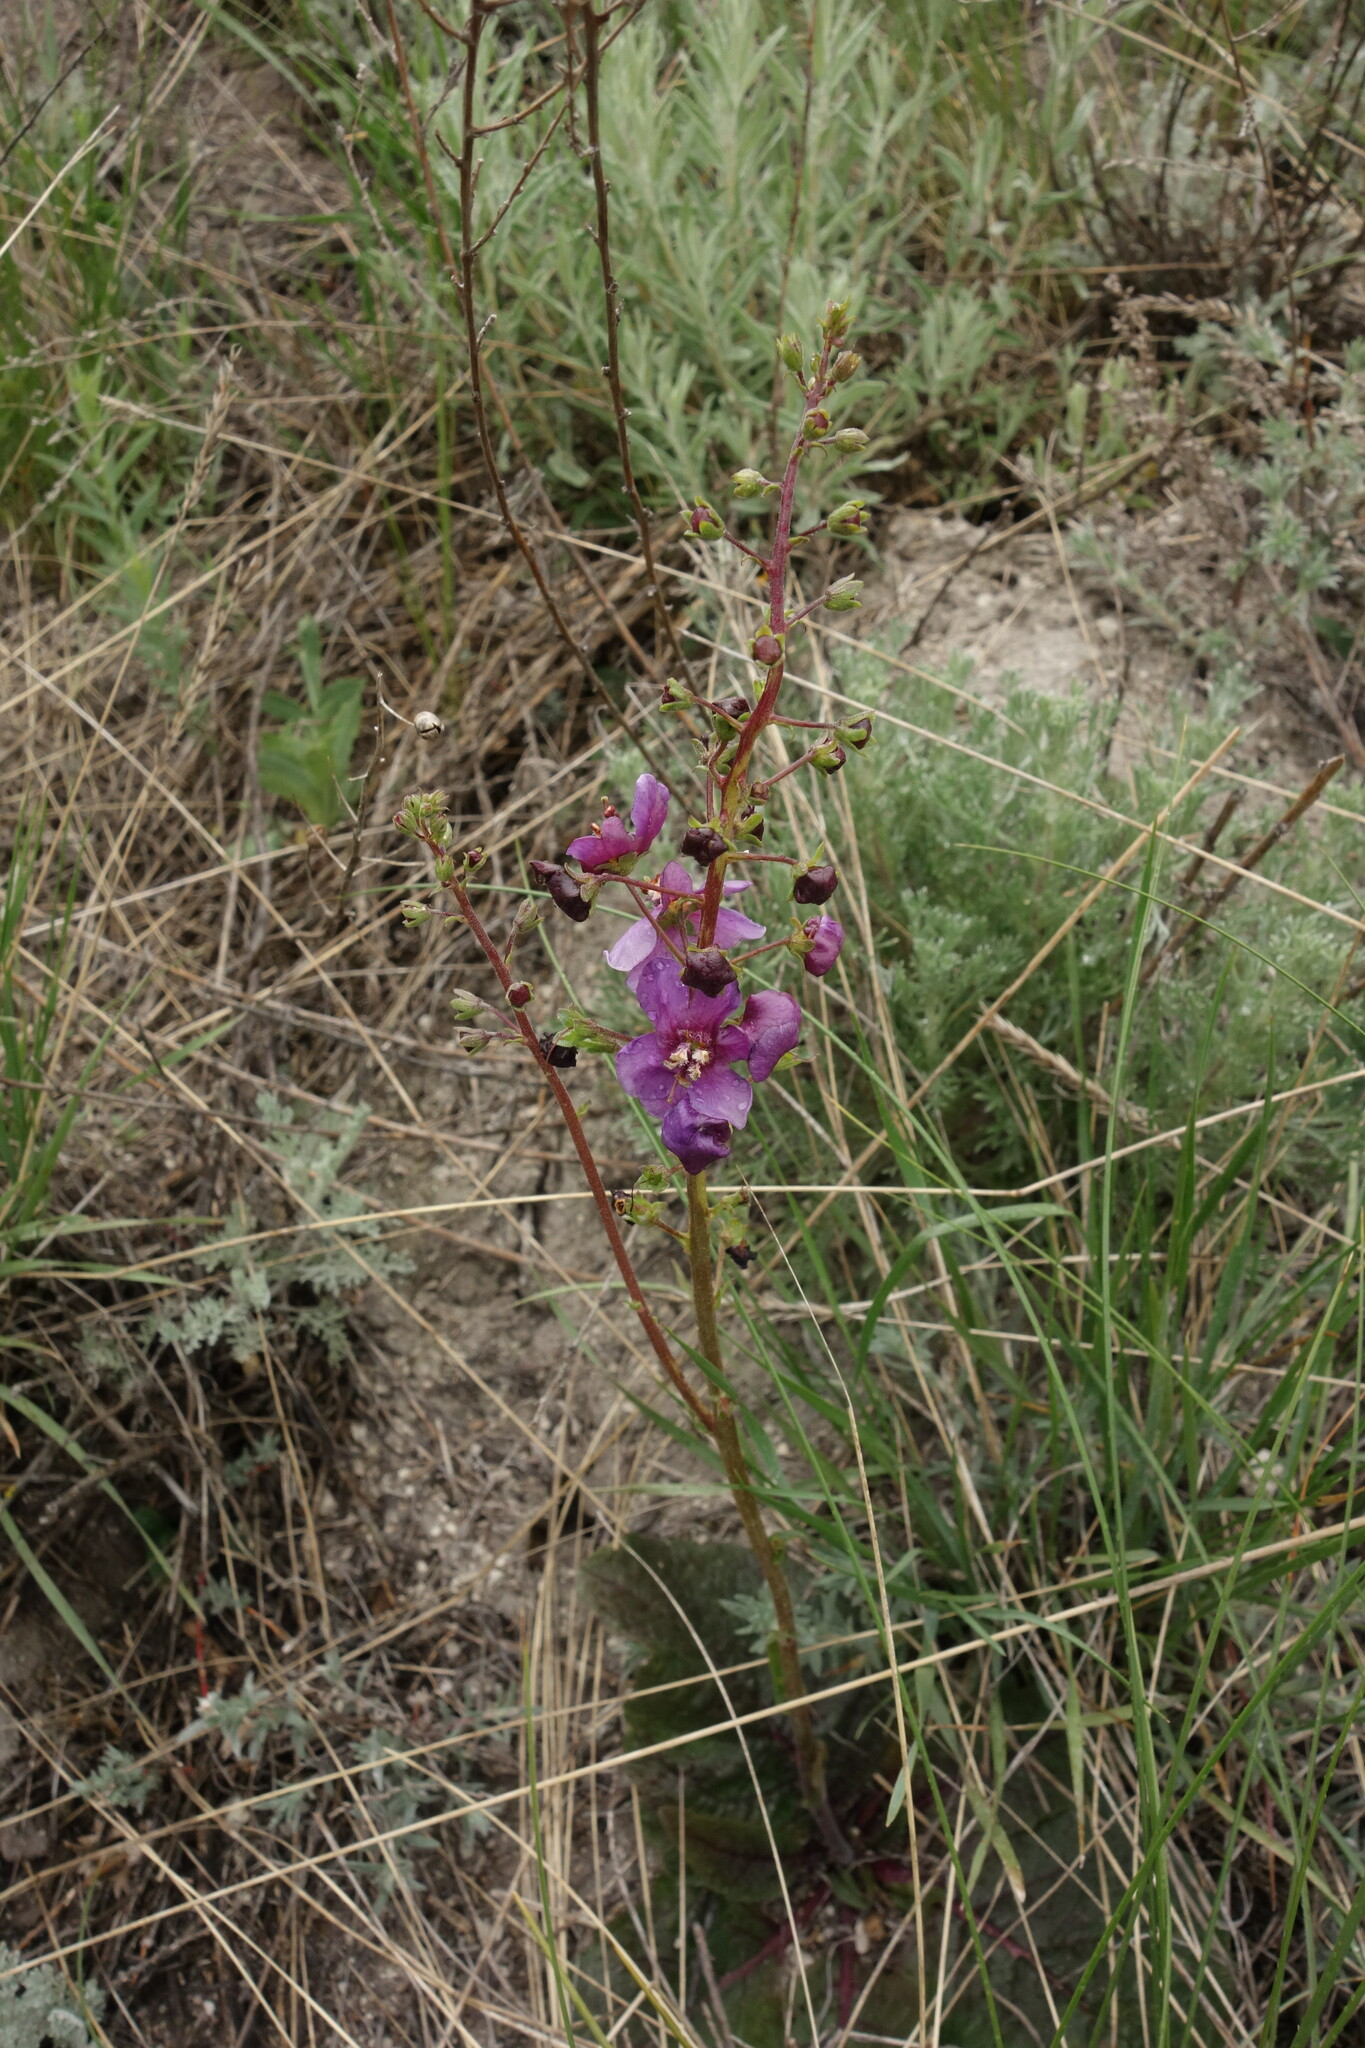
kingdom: Plantae
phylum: Tracheophyta
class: Magnoliopsida
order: Lamiales
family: Scrophulariaceae
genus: Verbascum
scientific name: Verbascum phoeniceum
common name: Purple mullein
